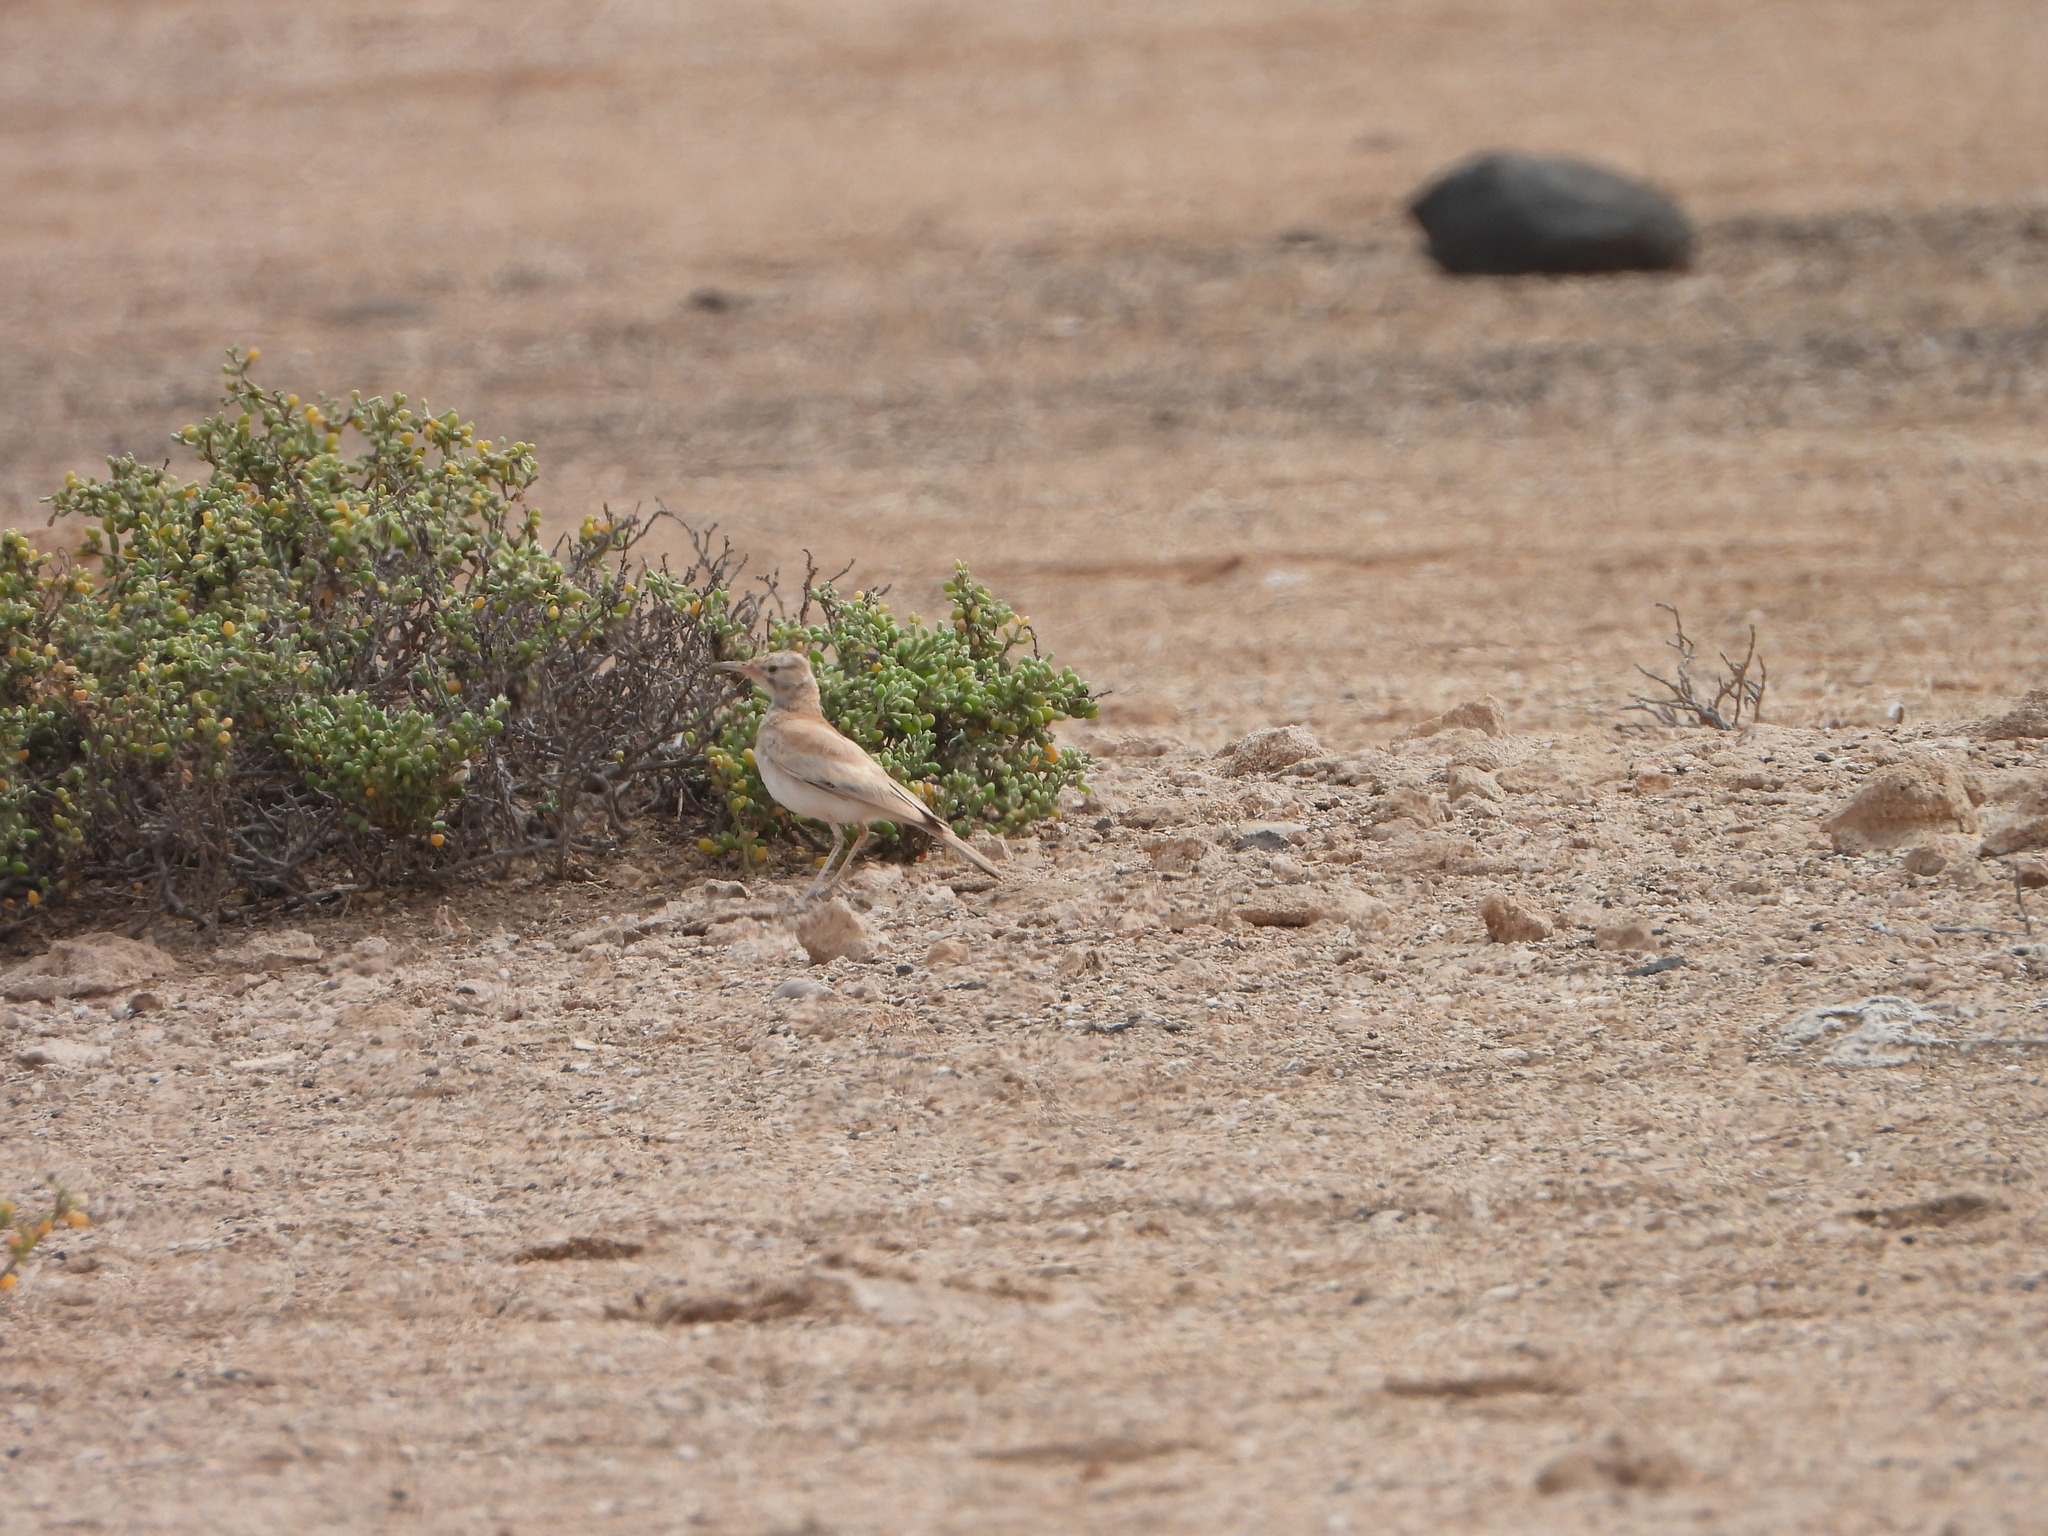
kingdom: Animalia
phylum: Chordata
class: Aves
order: Passeriformes
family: Alaudidae
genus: Alaemon
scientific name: Alaemon alaudipes
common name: Greater hoopoe-lark
